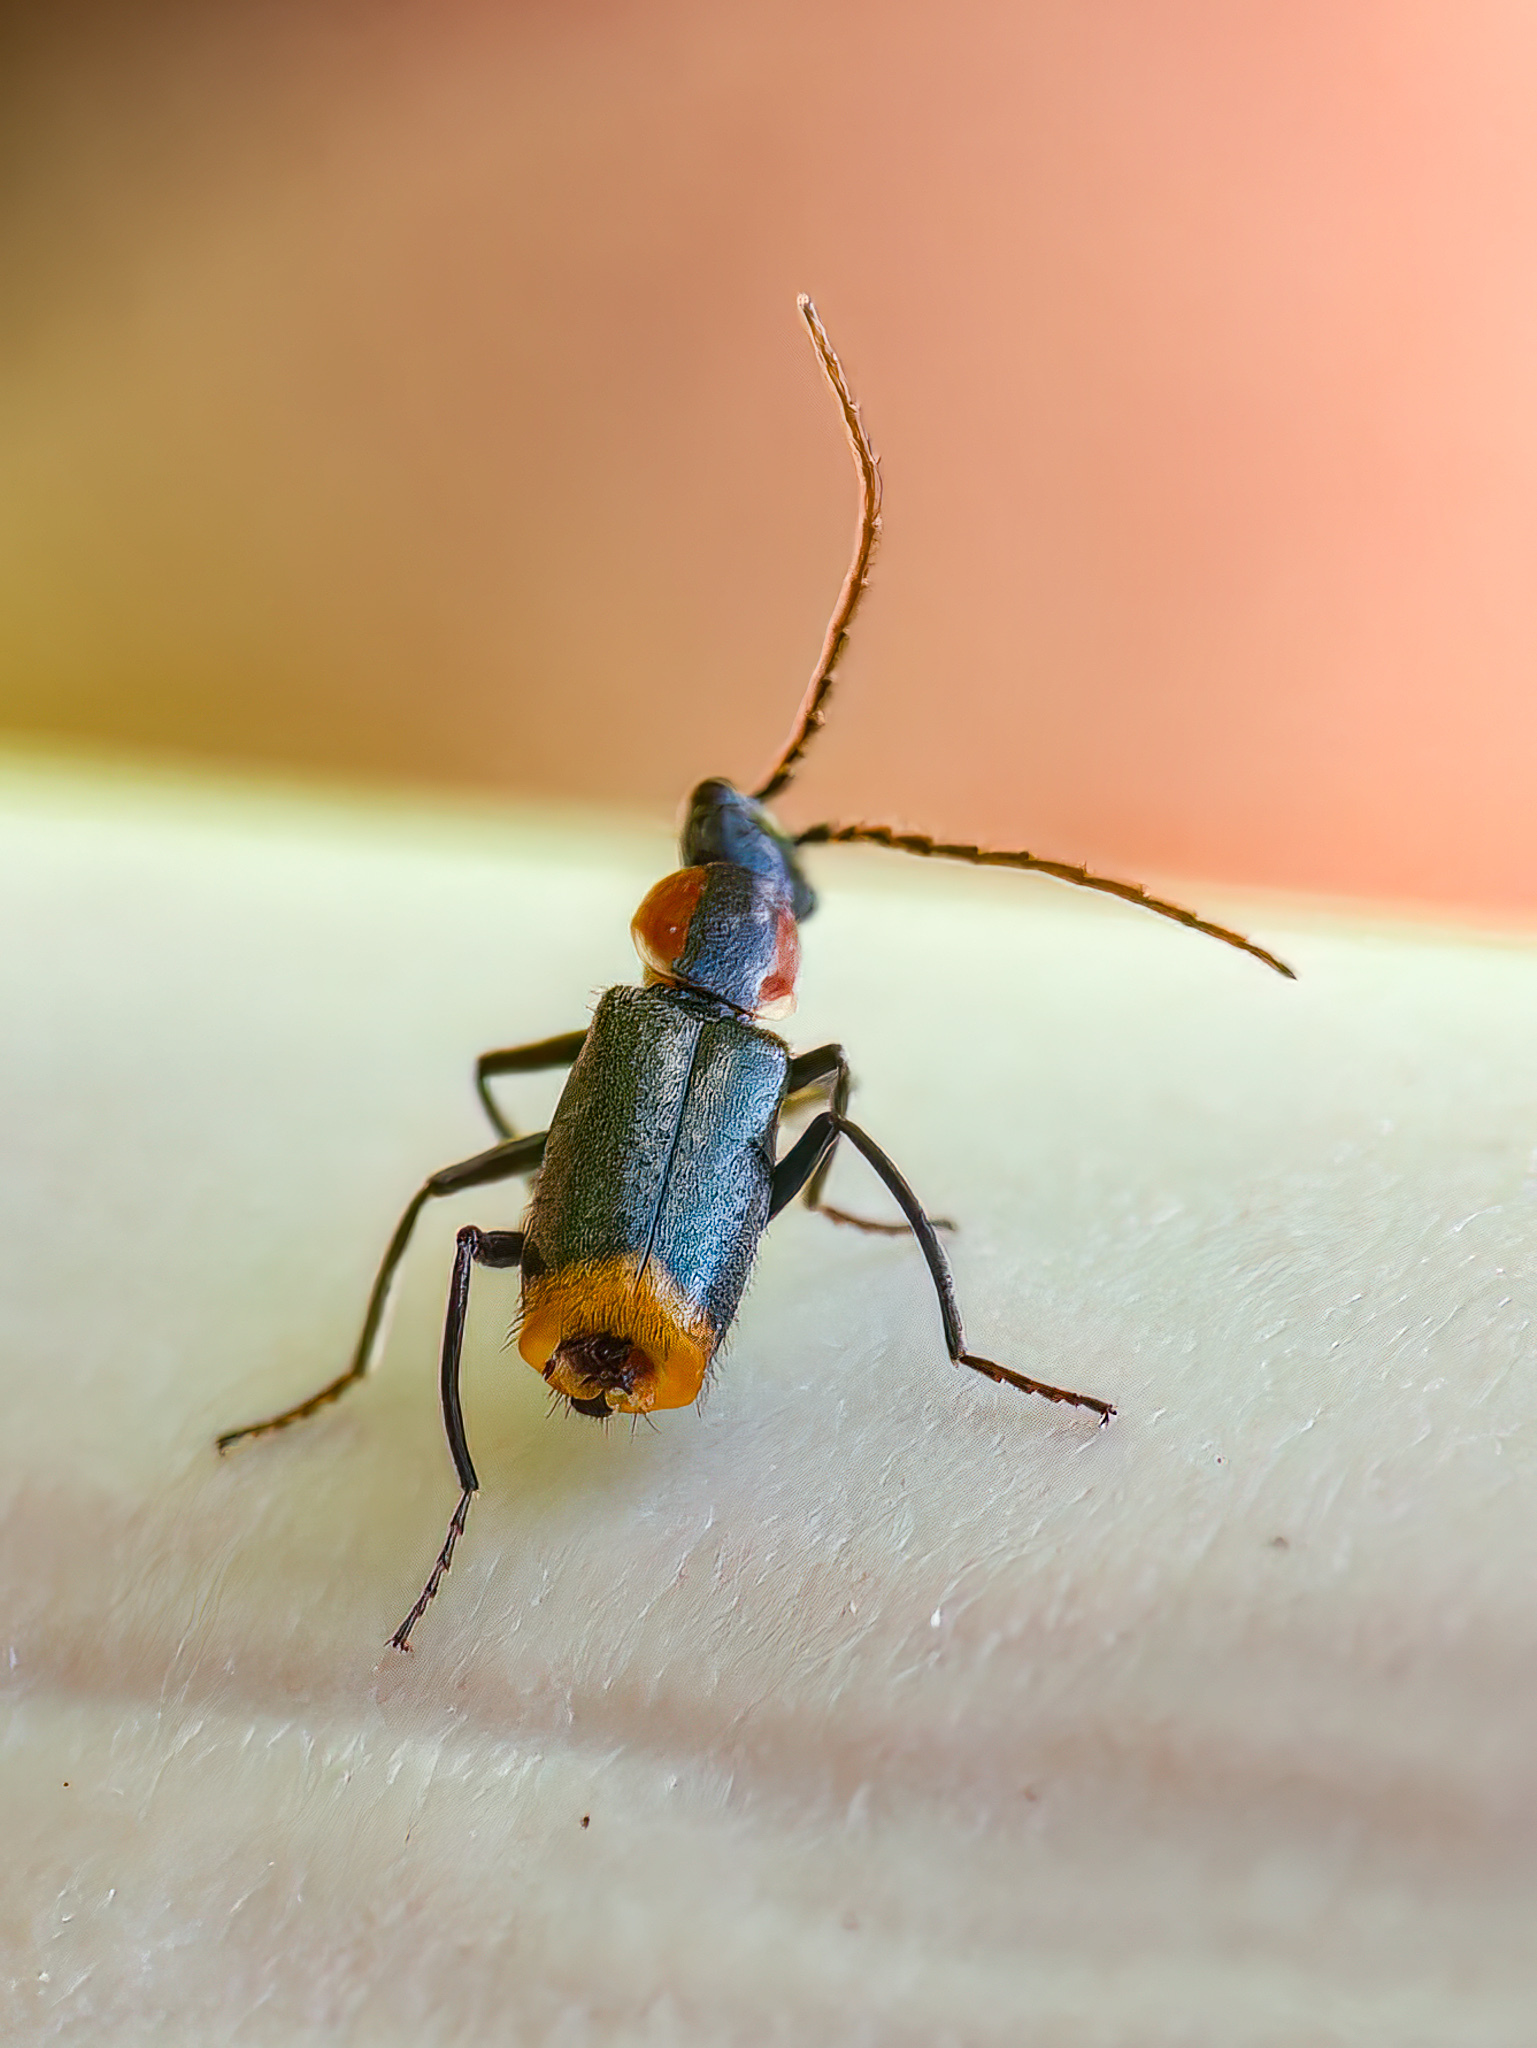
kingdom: Animalia
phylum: Arthropoda
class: Insecta
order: Coleoptera
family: Melyridae
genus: Axinotarsus
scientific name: Axinotarsus pulicarius
